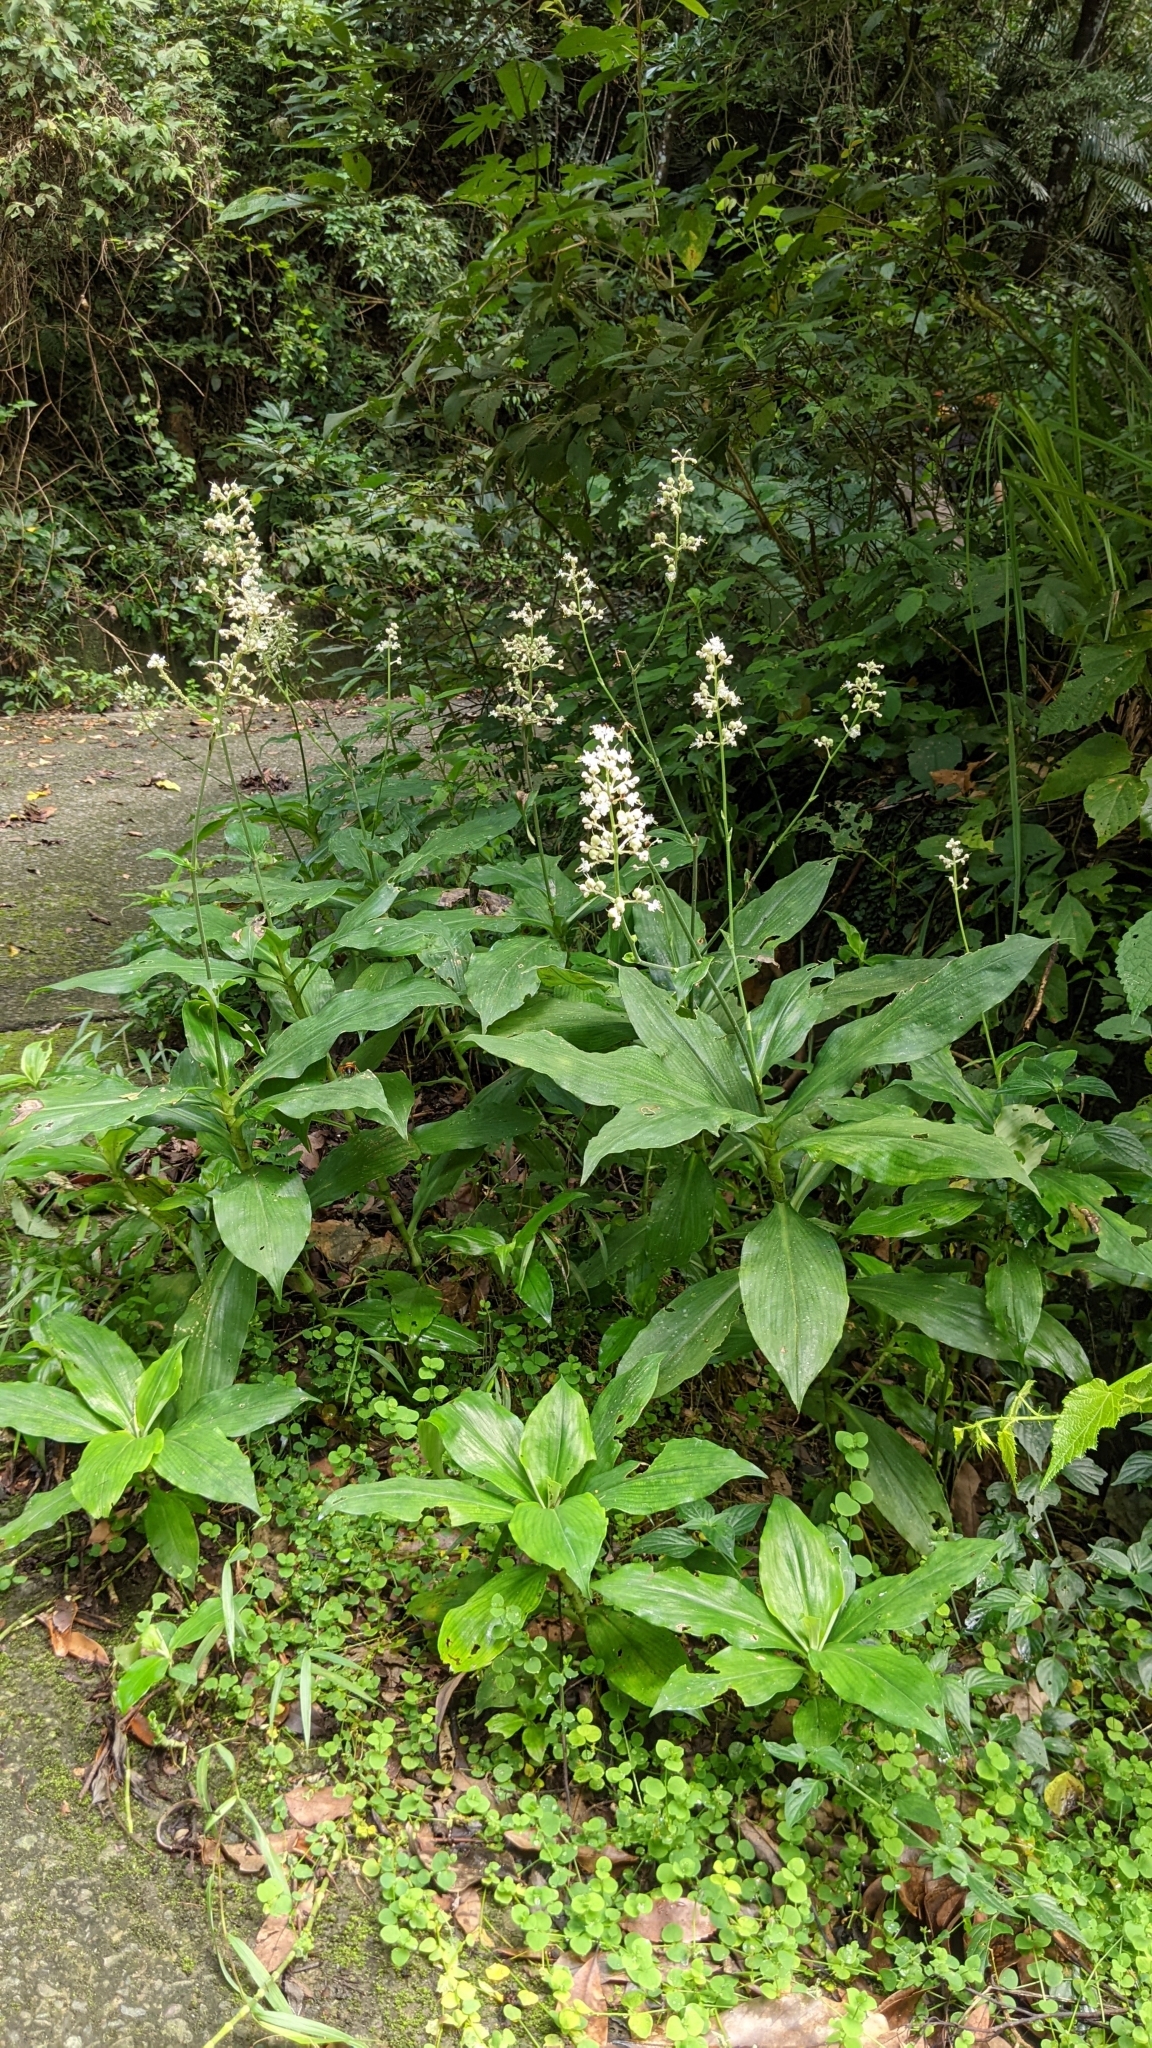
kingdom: Plantae
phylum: Tracheophyta
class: Liliopsida
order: Commelinales
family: Commelinaceae
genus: Pollia
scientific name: Pollia japonica
